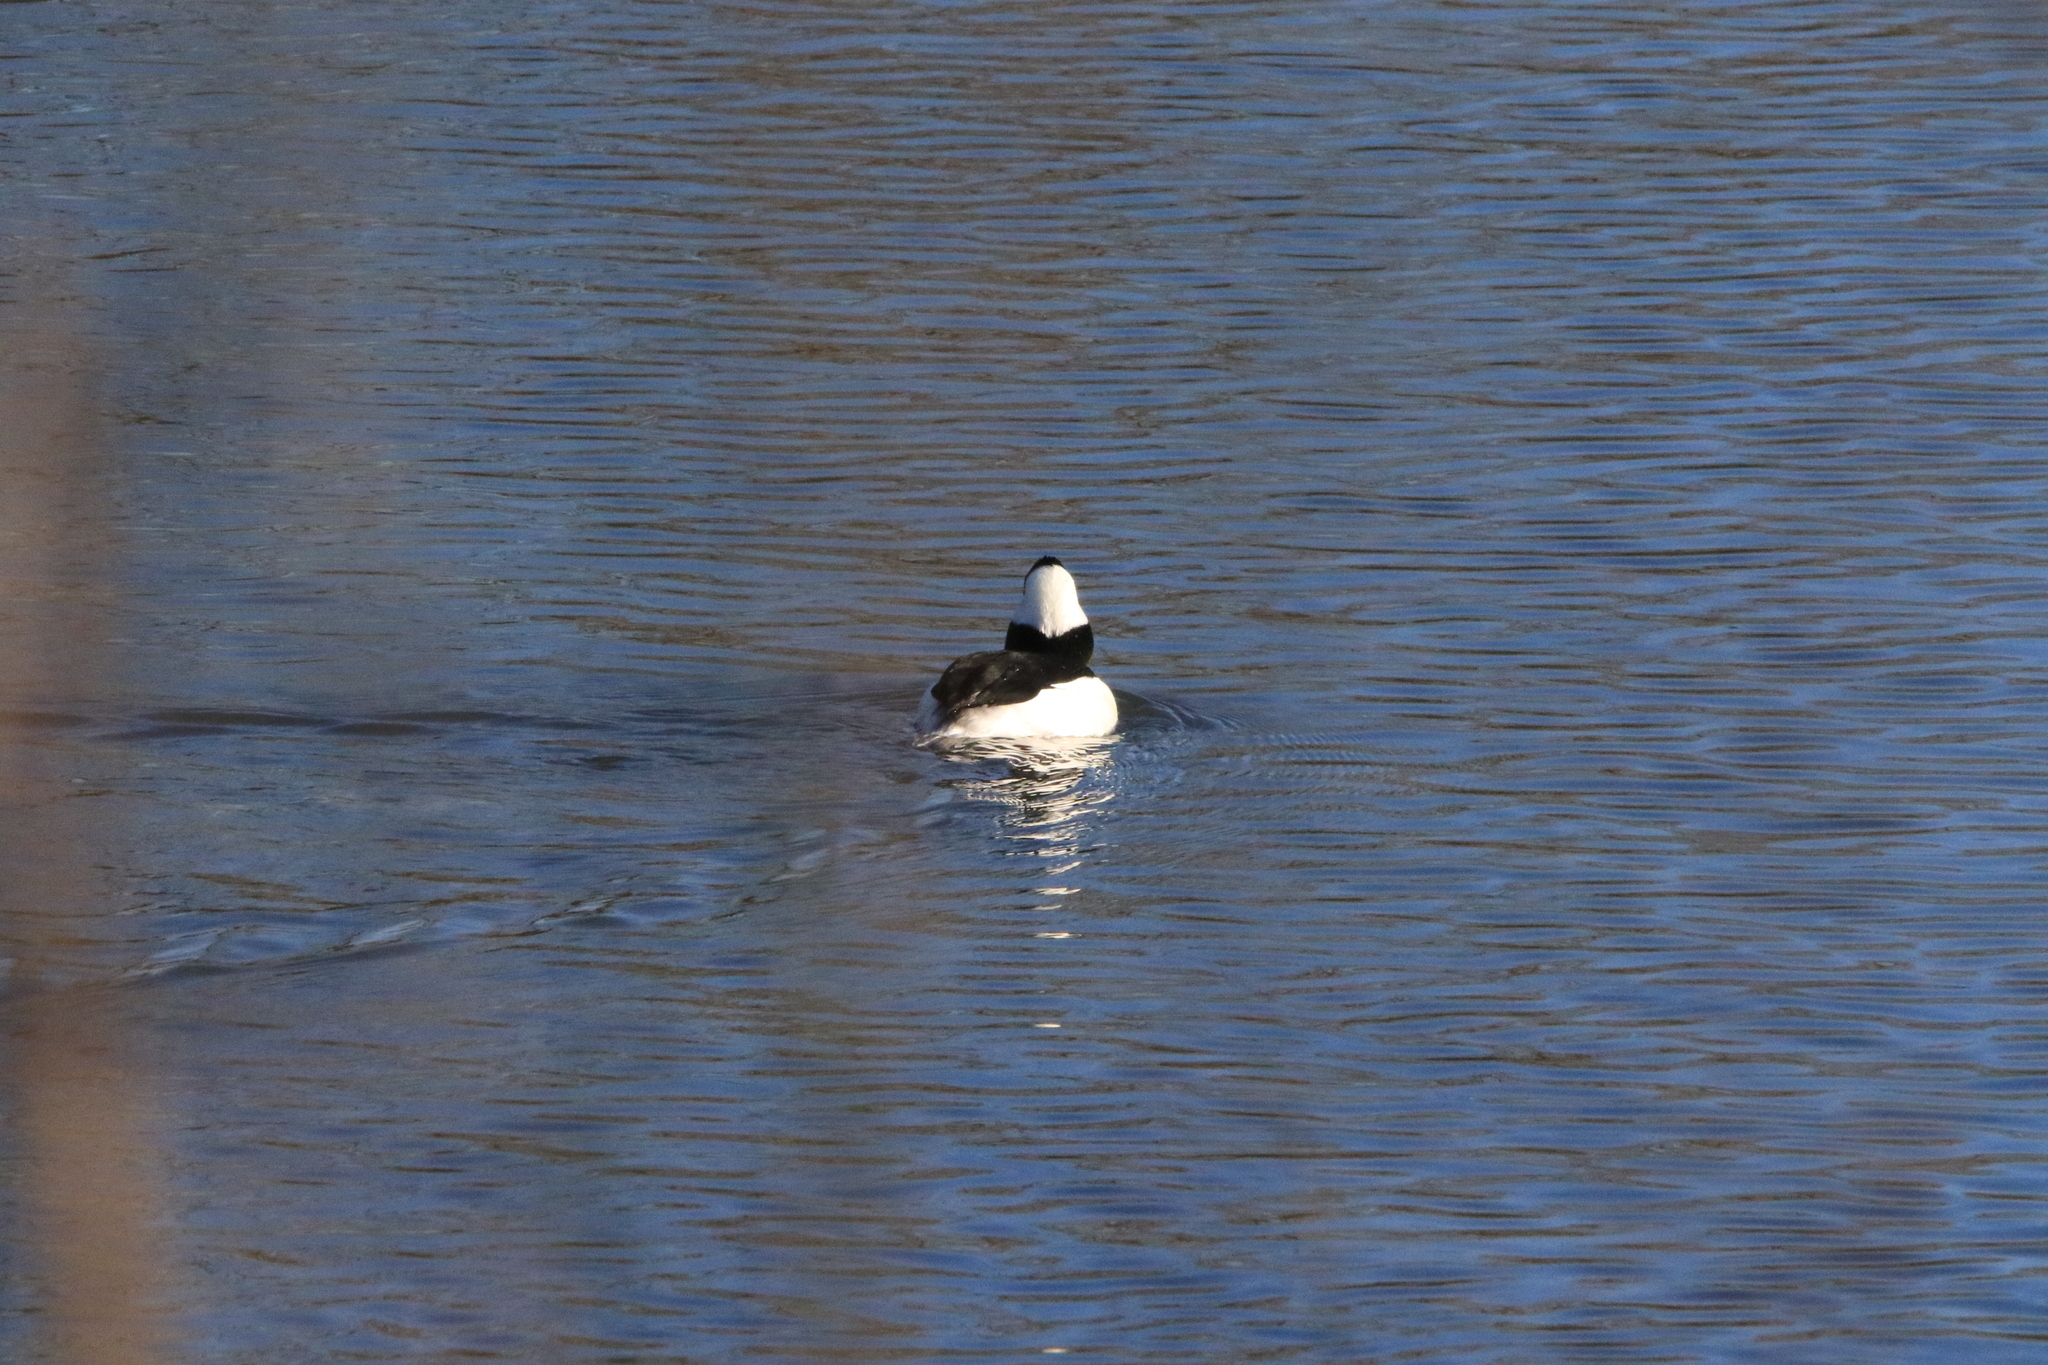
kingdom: Animalia
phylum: Chordata
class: Aves
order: Anseriformes
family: Anatidae
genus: Bucephala
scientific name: Bucephala albeola
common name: Bufflehead
